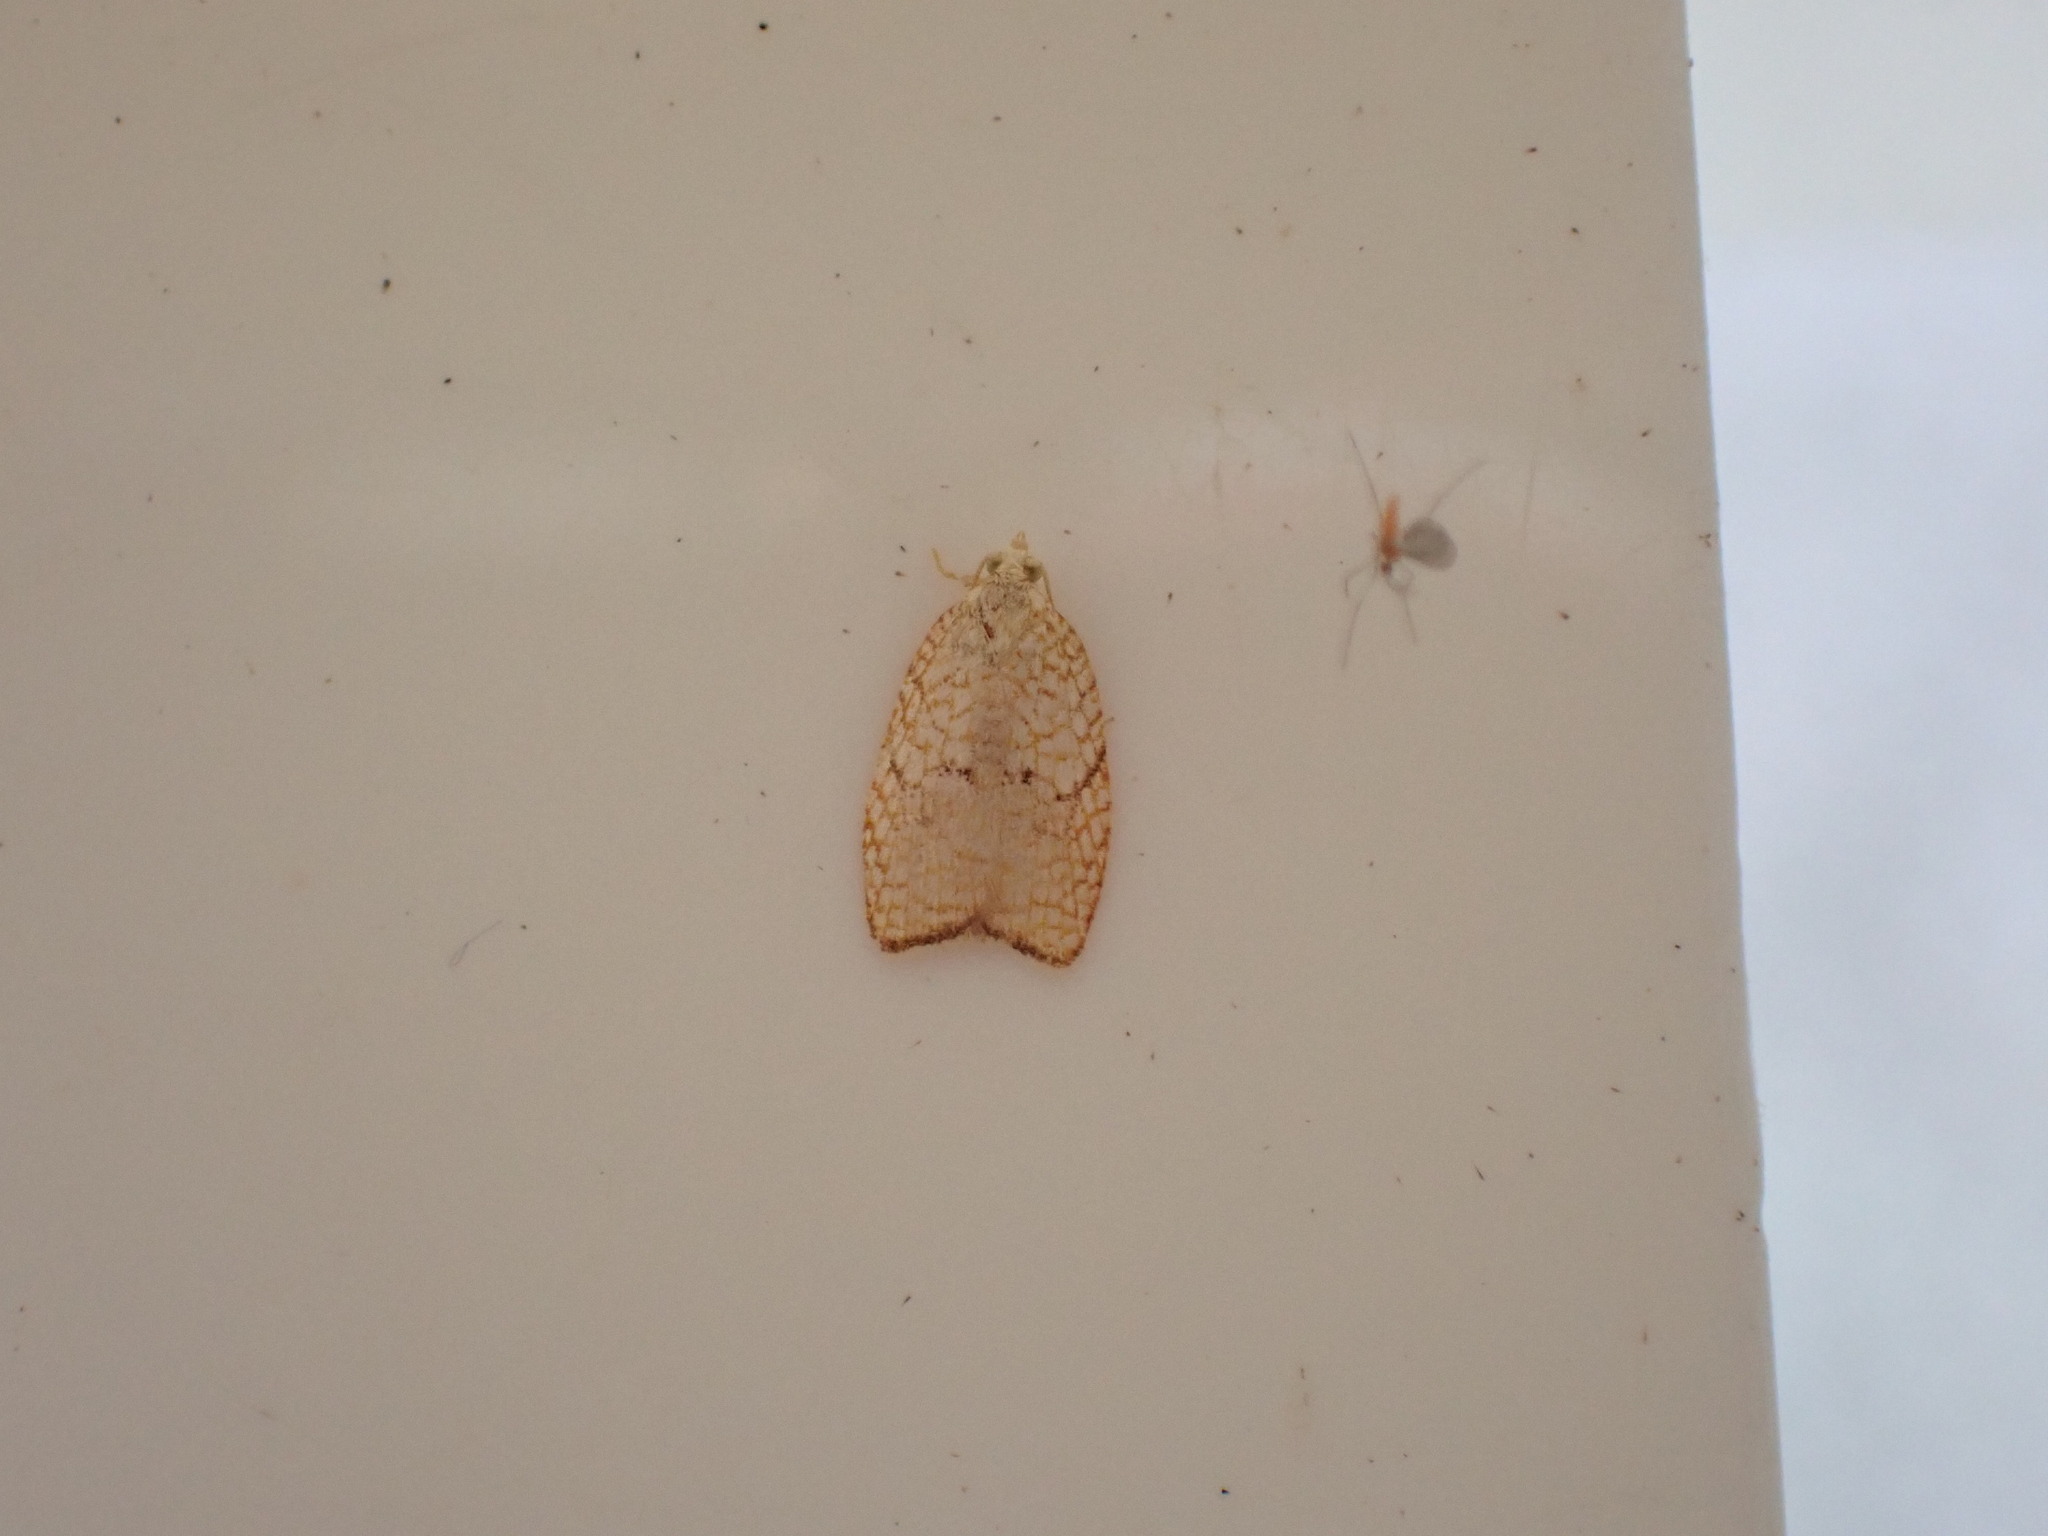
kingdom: Animalia
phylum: Arthropoda
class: Insecta
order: Lepidoptera
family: Tortricidae
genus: Acleris
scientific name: Acleris forsskaleana
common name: Maple button
